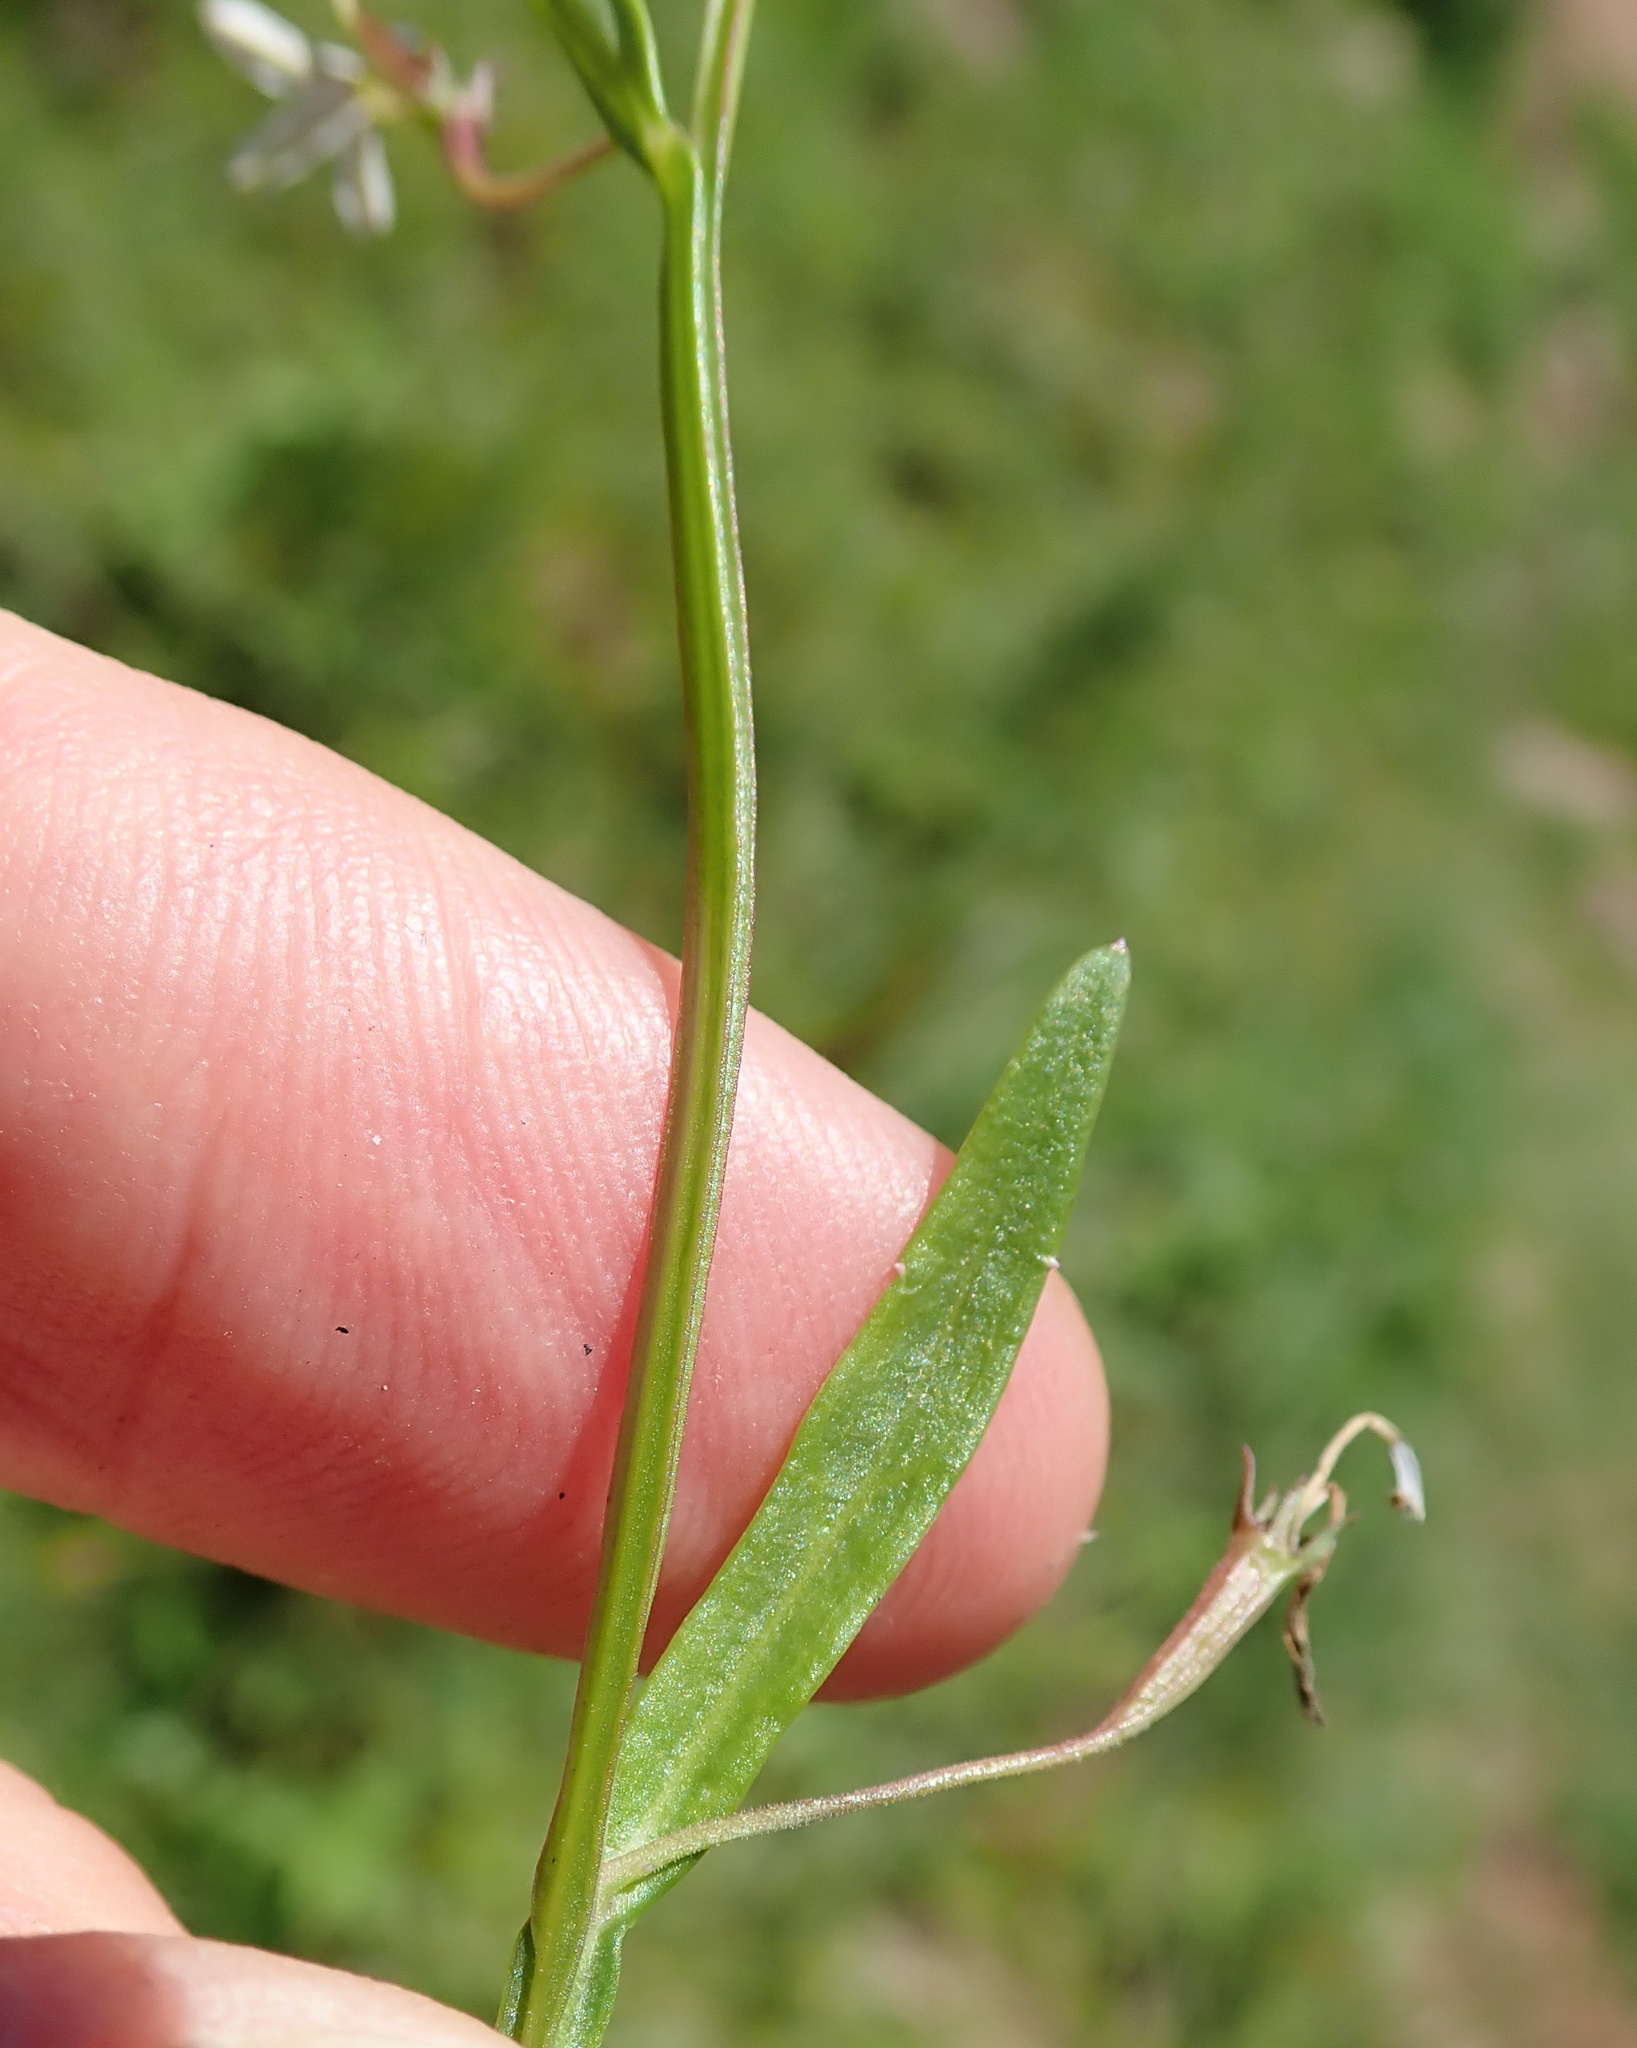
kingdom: Plantae
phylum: Tracheophyta
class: Magnoliopsida
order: Asterales
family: Campanulaceae
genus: Lobelia
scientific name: Lobelia anceps
